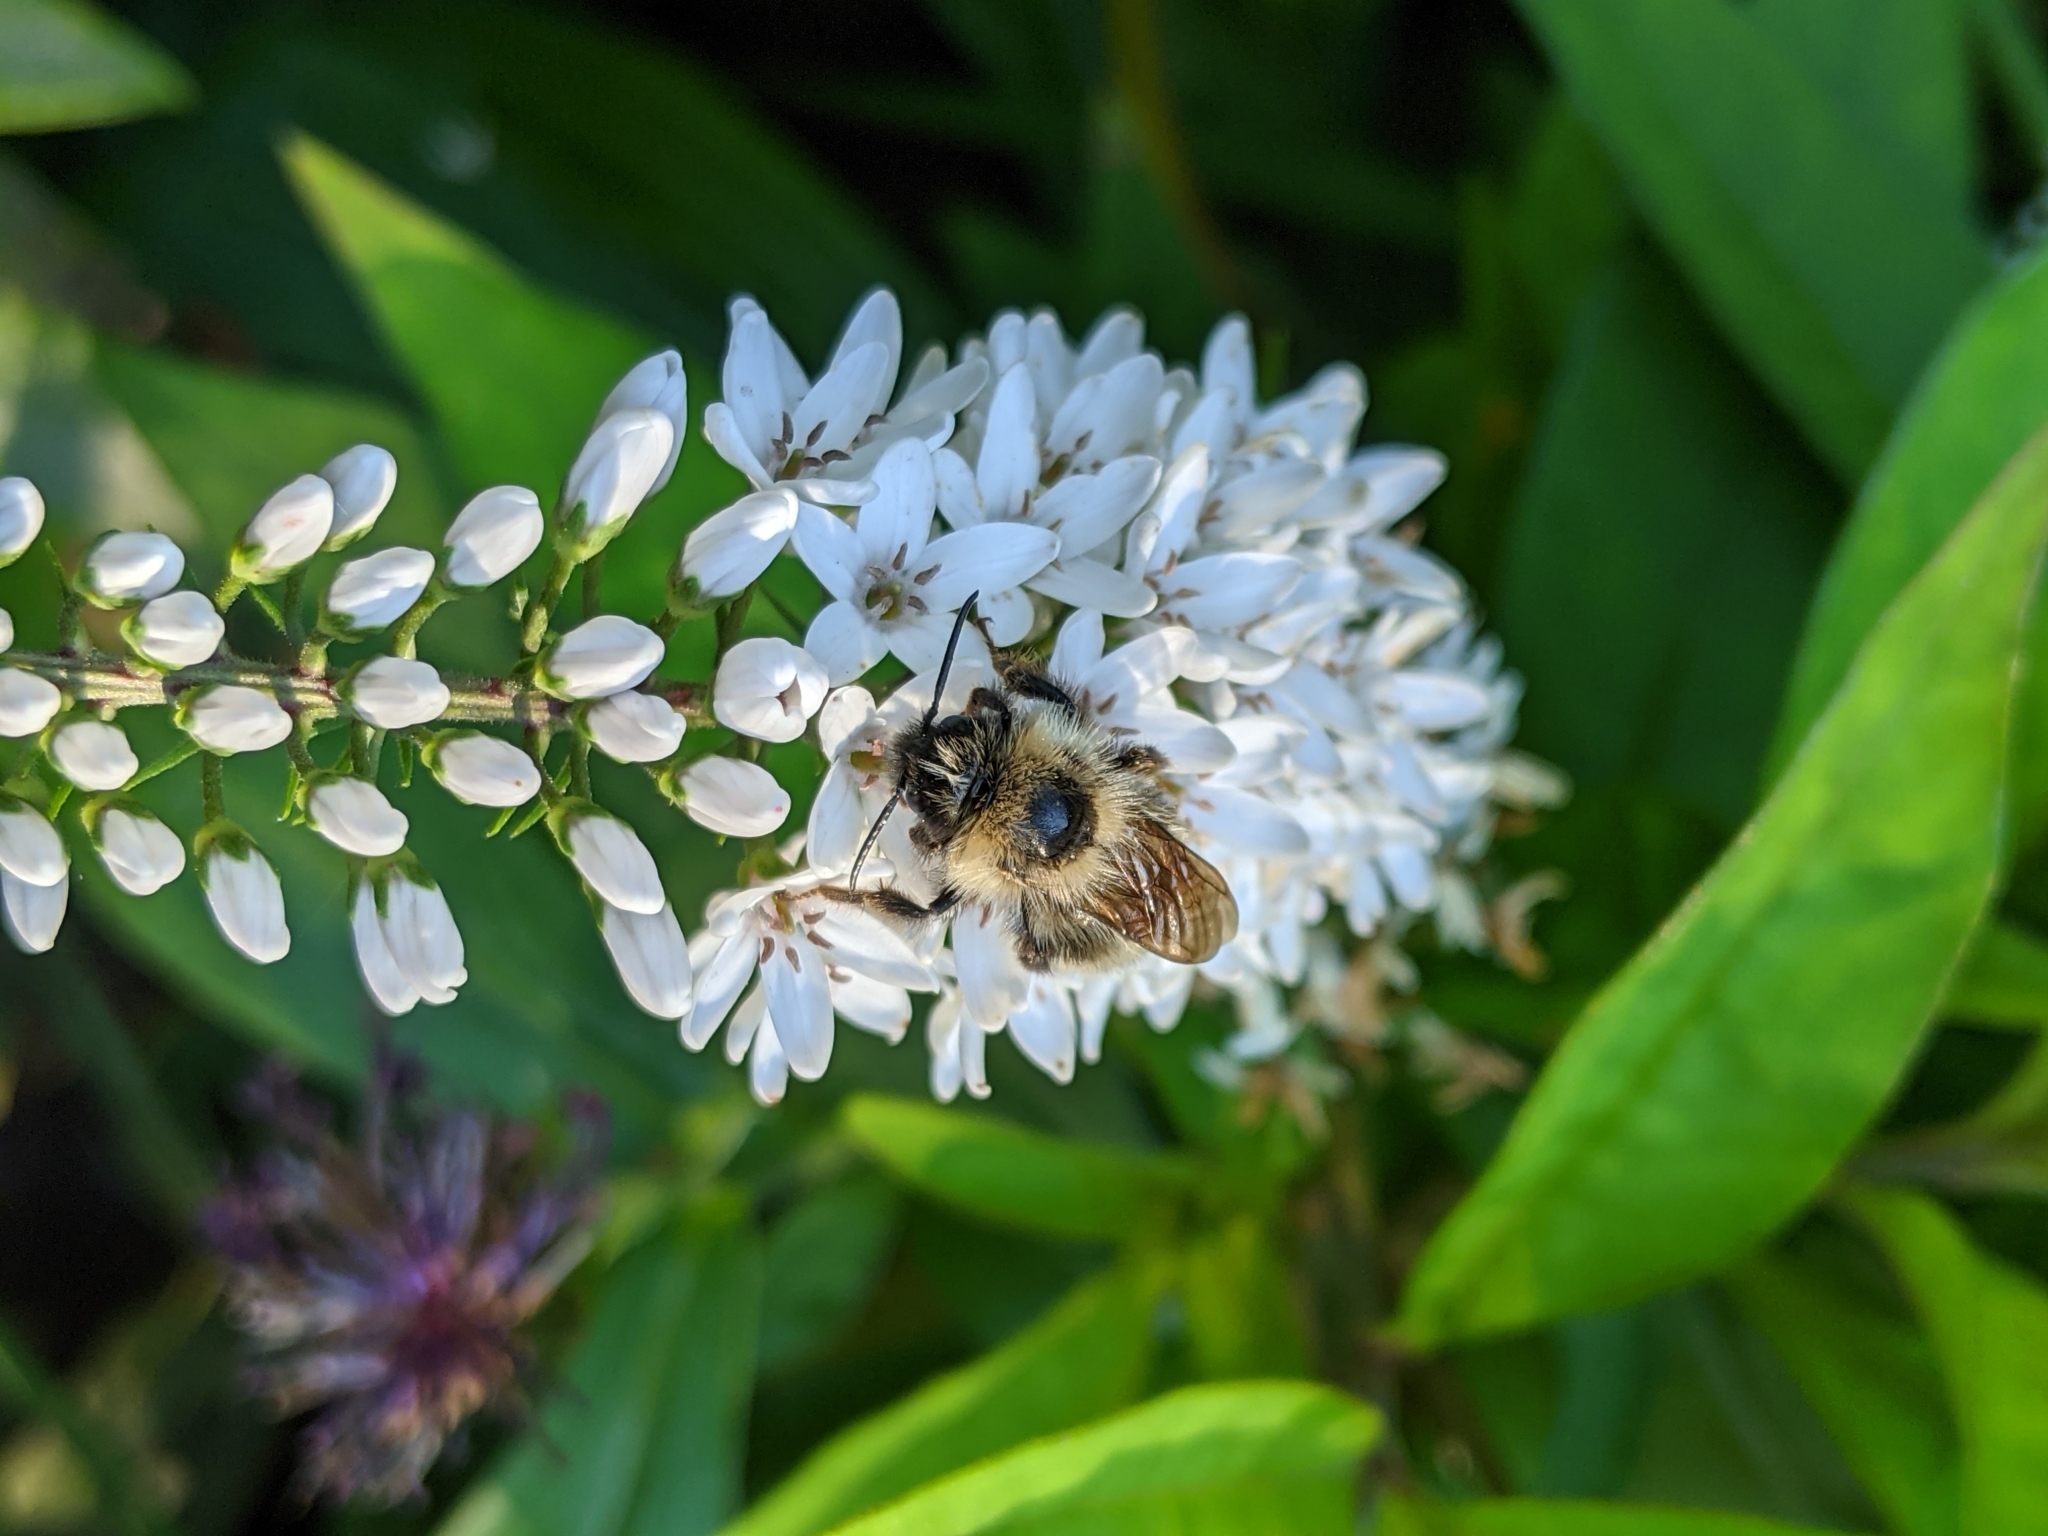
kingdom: Animalia
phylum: Arthropoda
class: Insecta
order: Hymenoptera
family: Apidae
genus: Bombus
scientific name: Bombus flavidus
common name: Fernald cuckoo bumble bee
